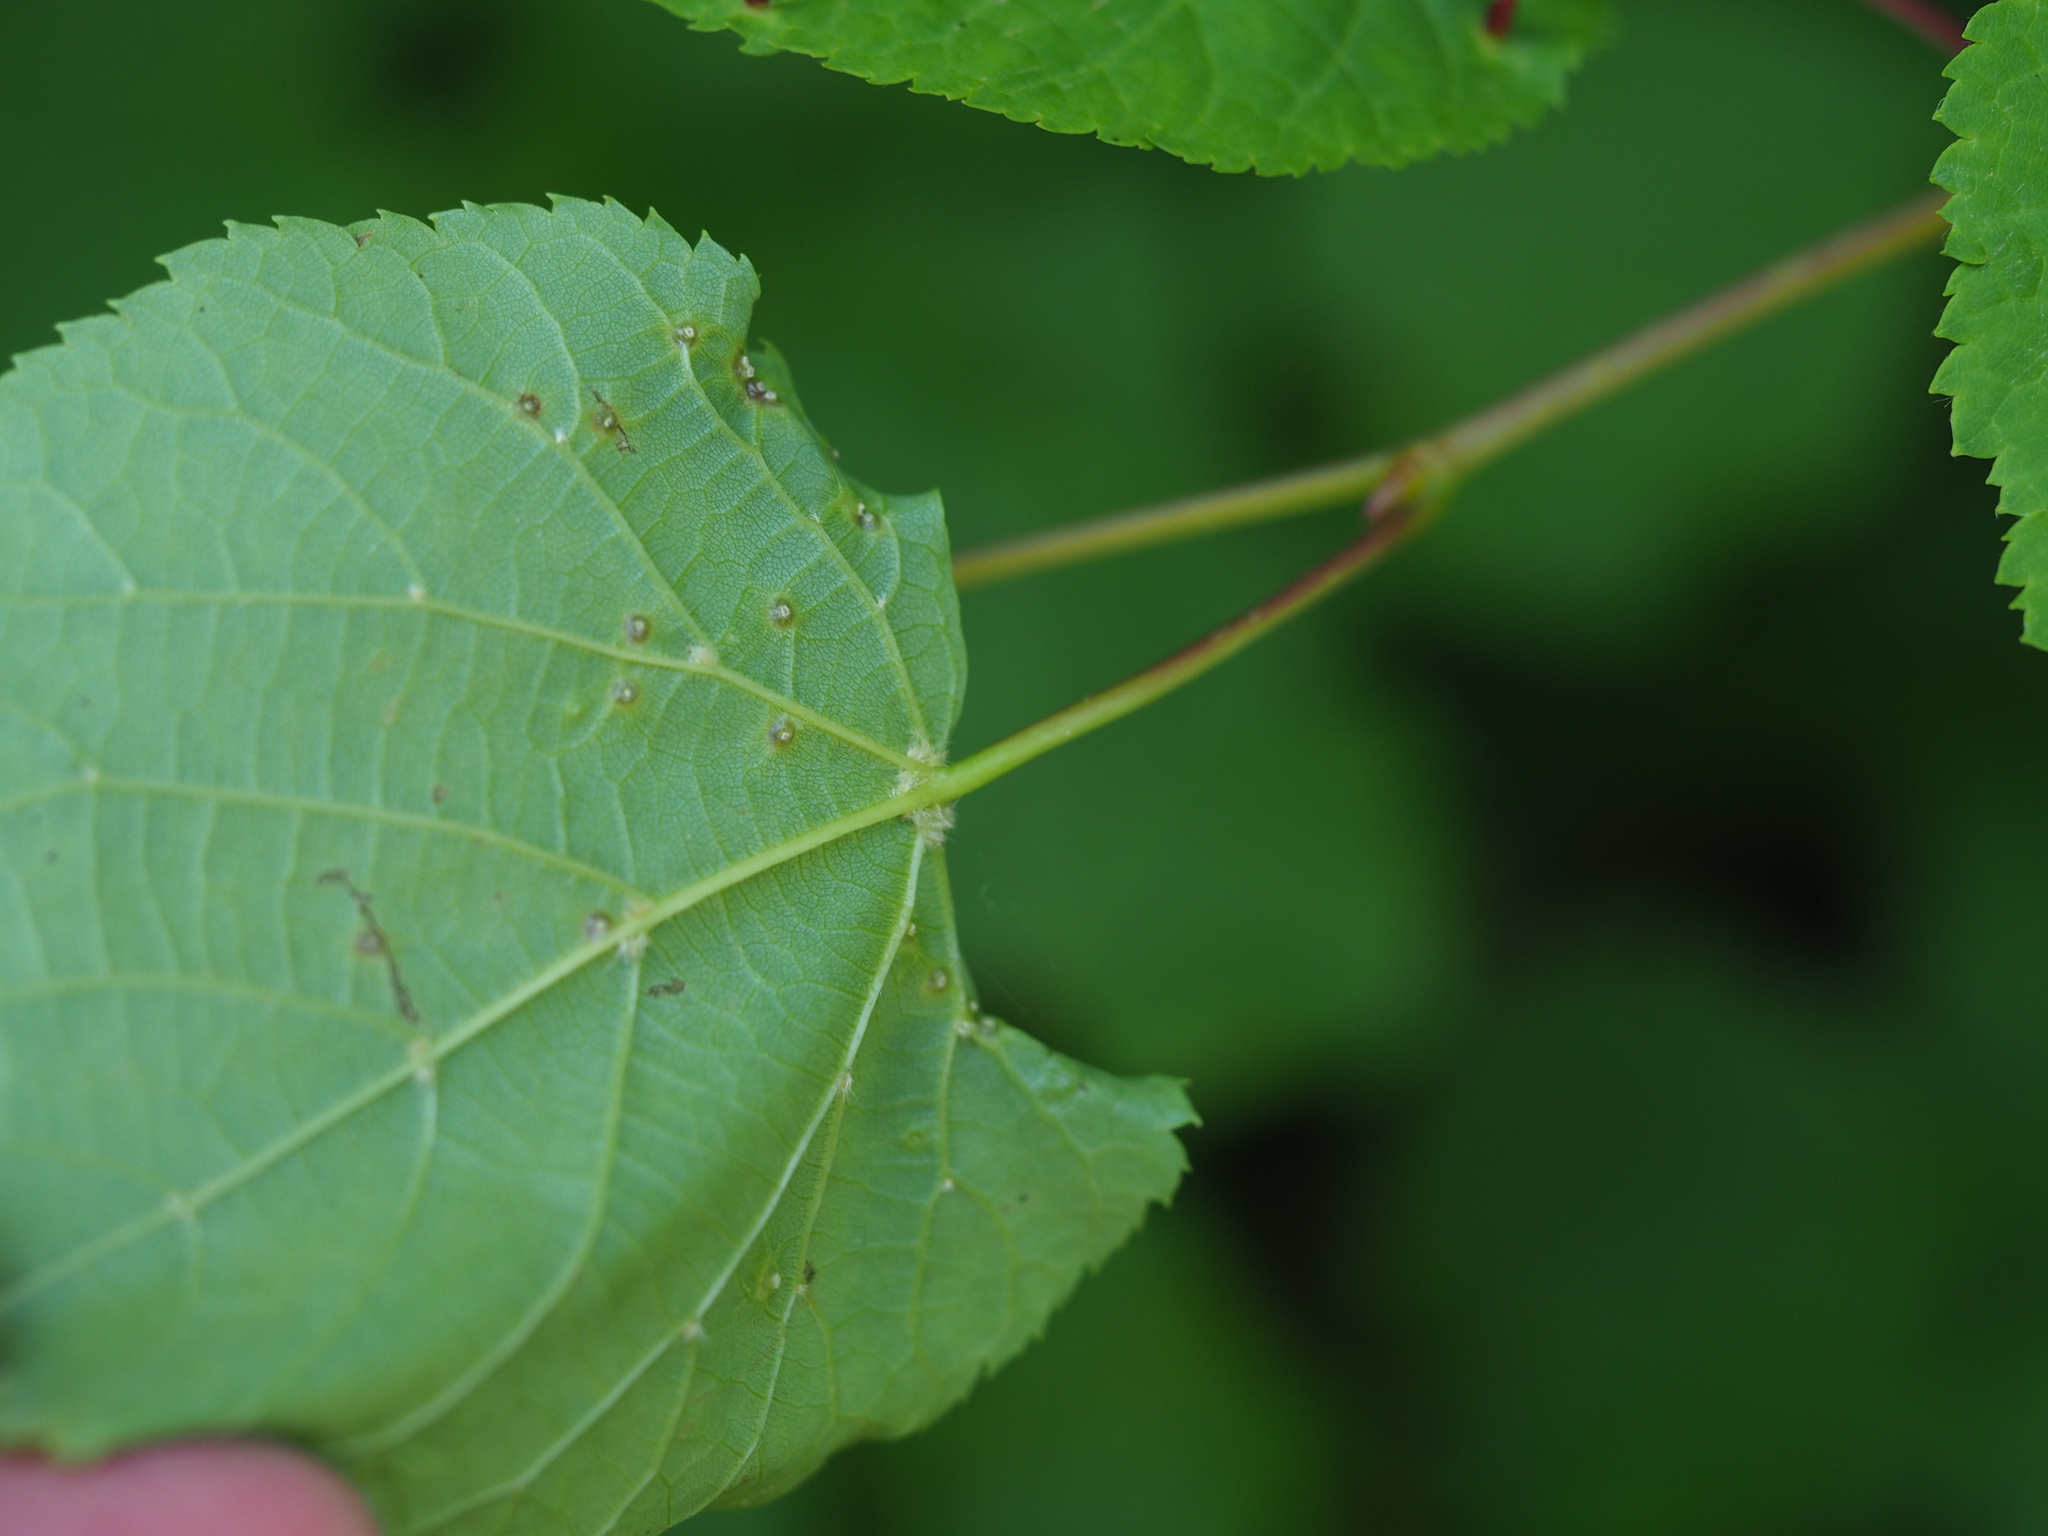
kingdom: Animalia
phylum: Arthropoda
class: Arachnida
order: Trombidiformes
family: Eriophyidae
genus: Eriophyes
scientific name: Eriophyes tiliae
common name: Red nail gall mite
